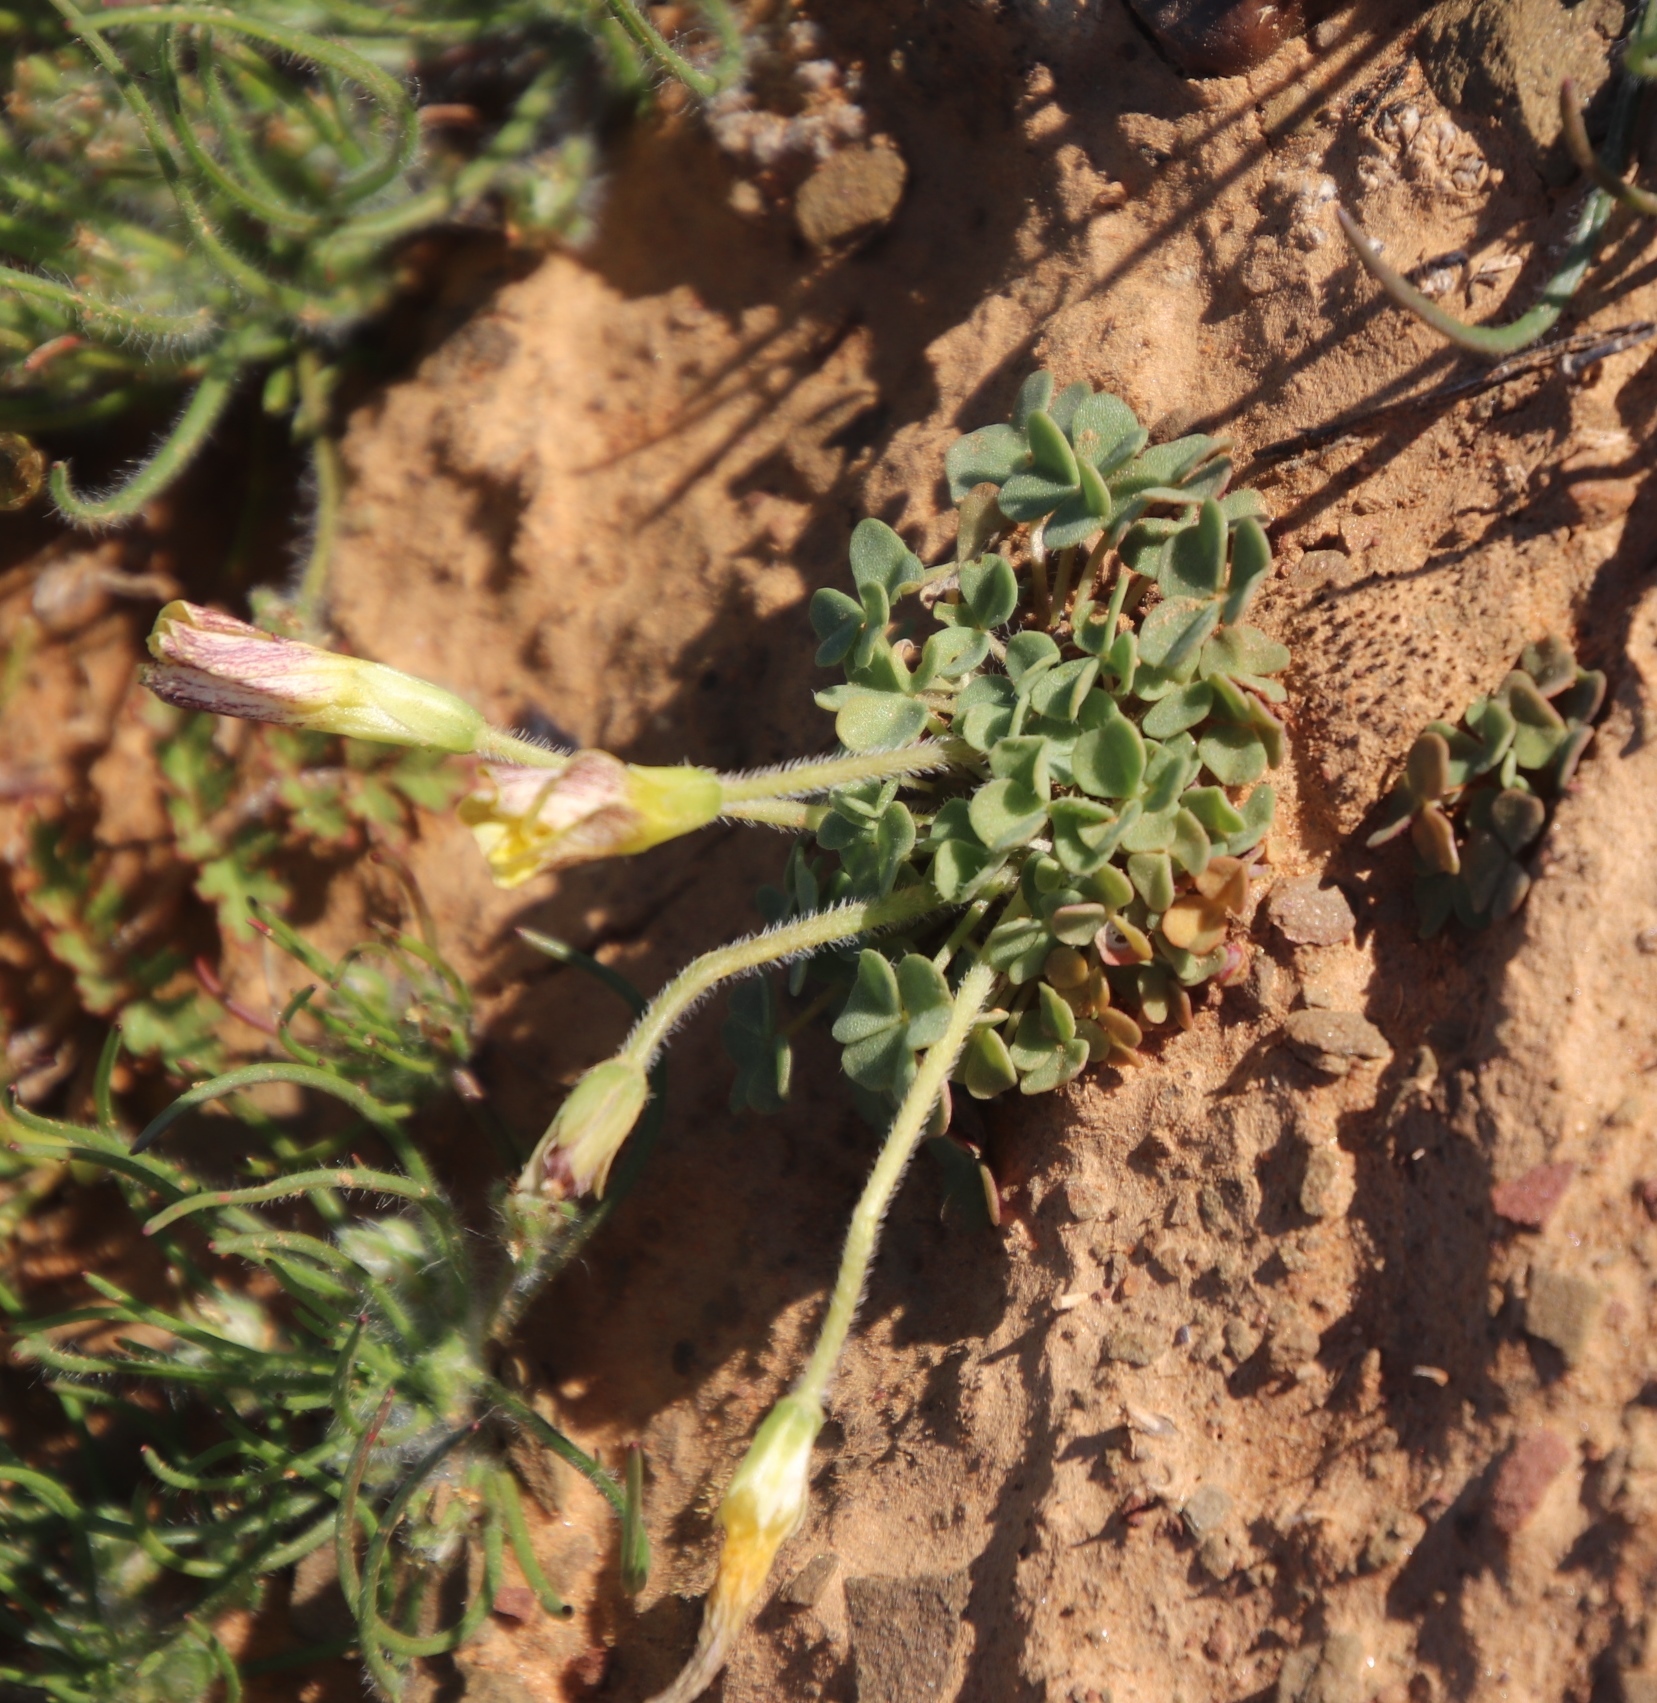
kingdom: Plantae
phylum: Tracheophyta
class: Magnoliopsida
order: Oxalidales
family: Oxalidaceae
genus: Oxalis
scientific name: Oxalis obtusa
